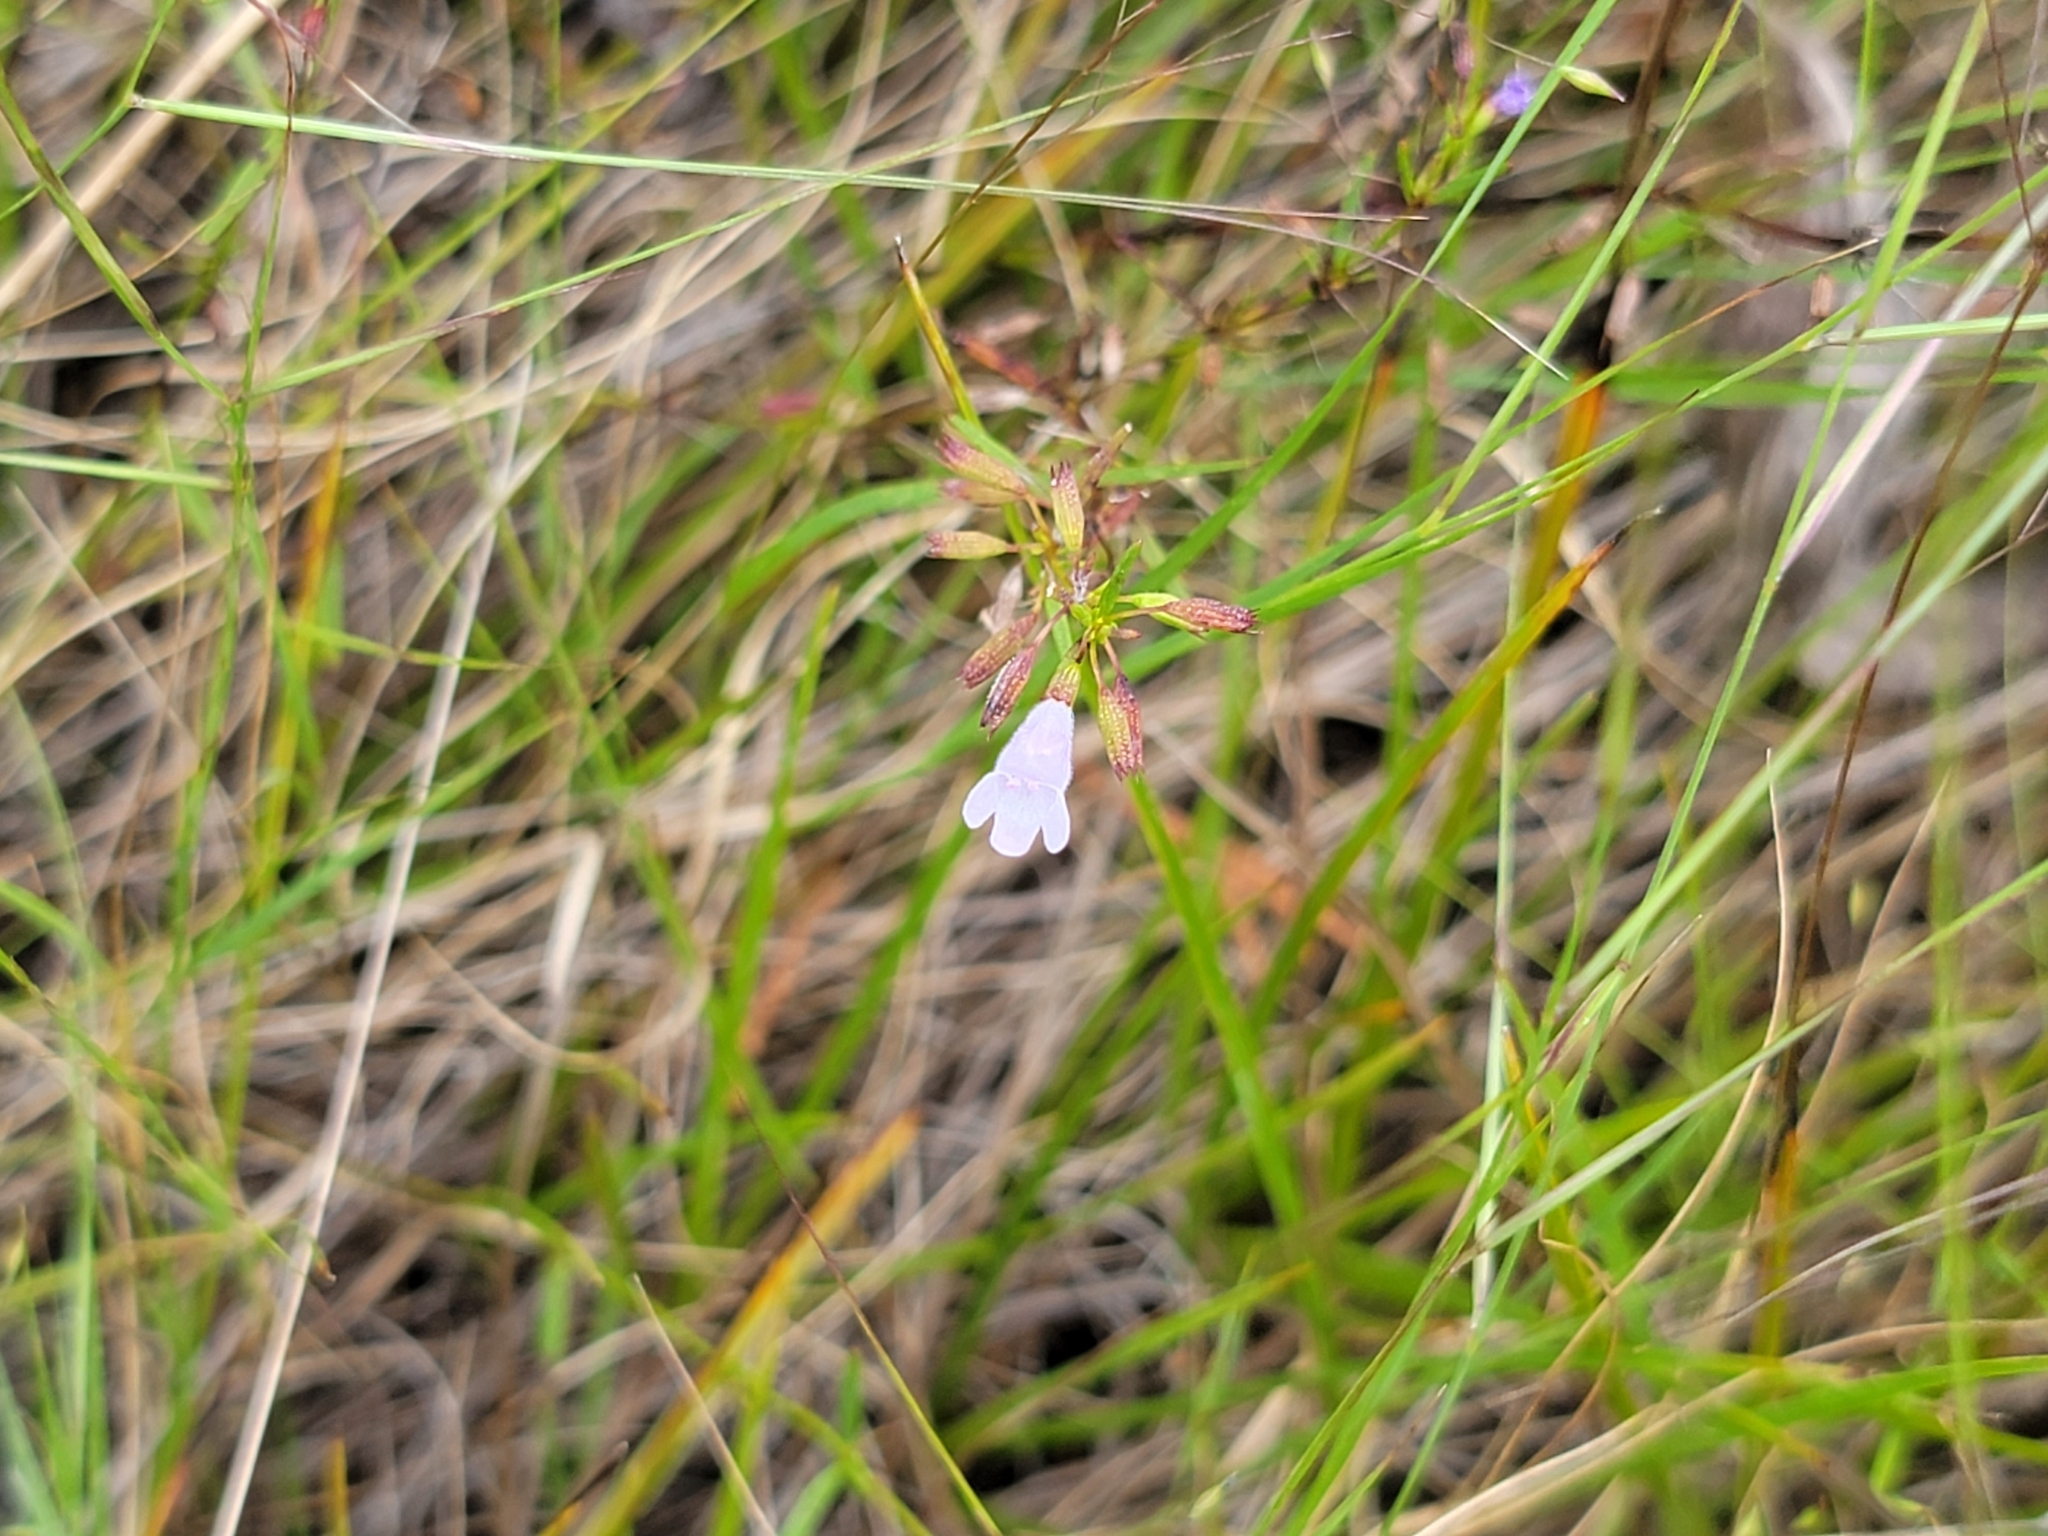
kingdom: Plantae
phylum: Tracheophyta
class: Magnoliopsida
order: Lamiales
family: Lamiaceae
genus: Clinopodium
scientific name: Clinopodium arkansanum
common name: Limestone calamint
